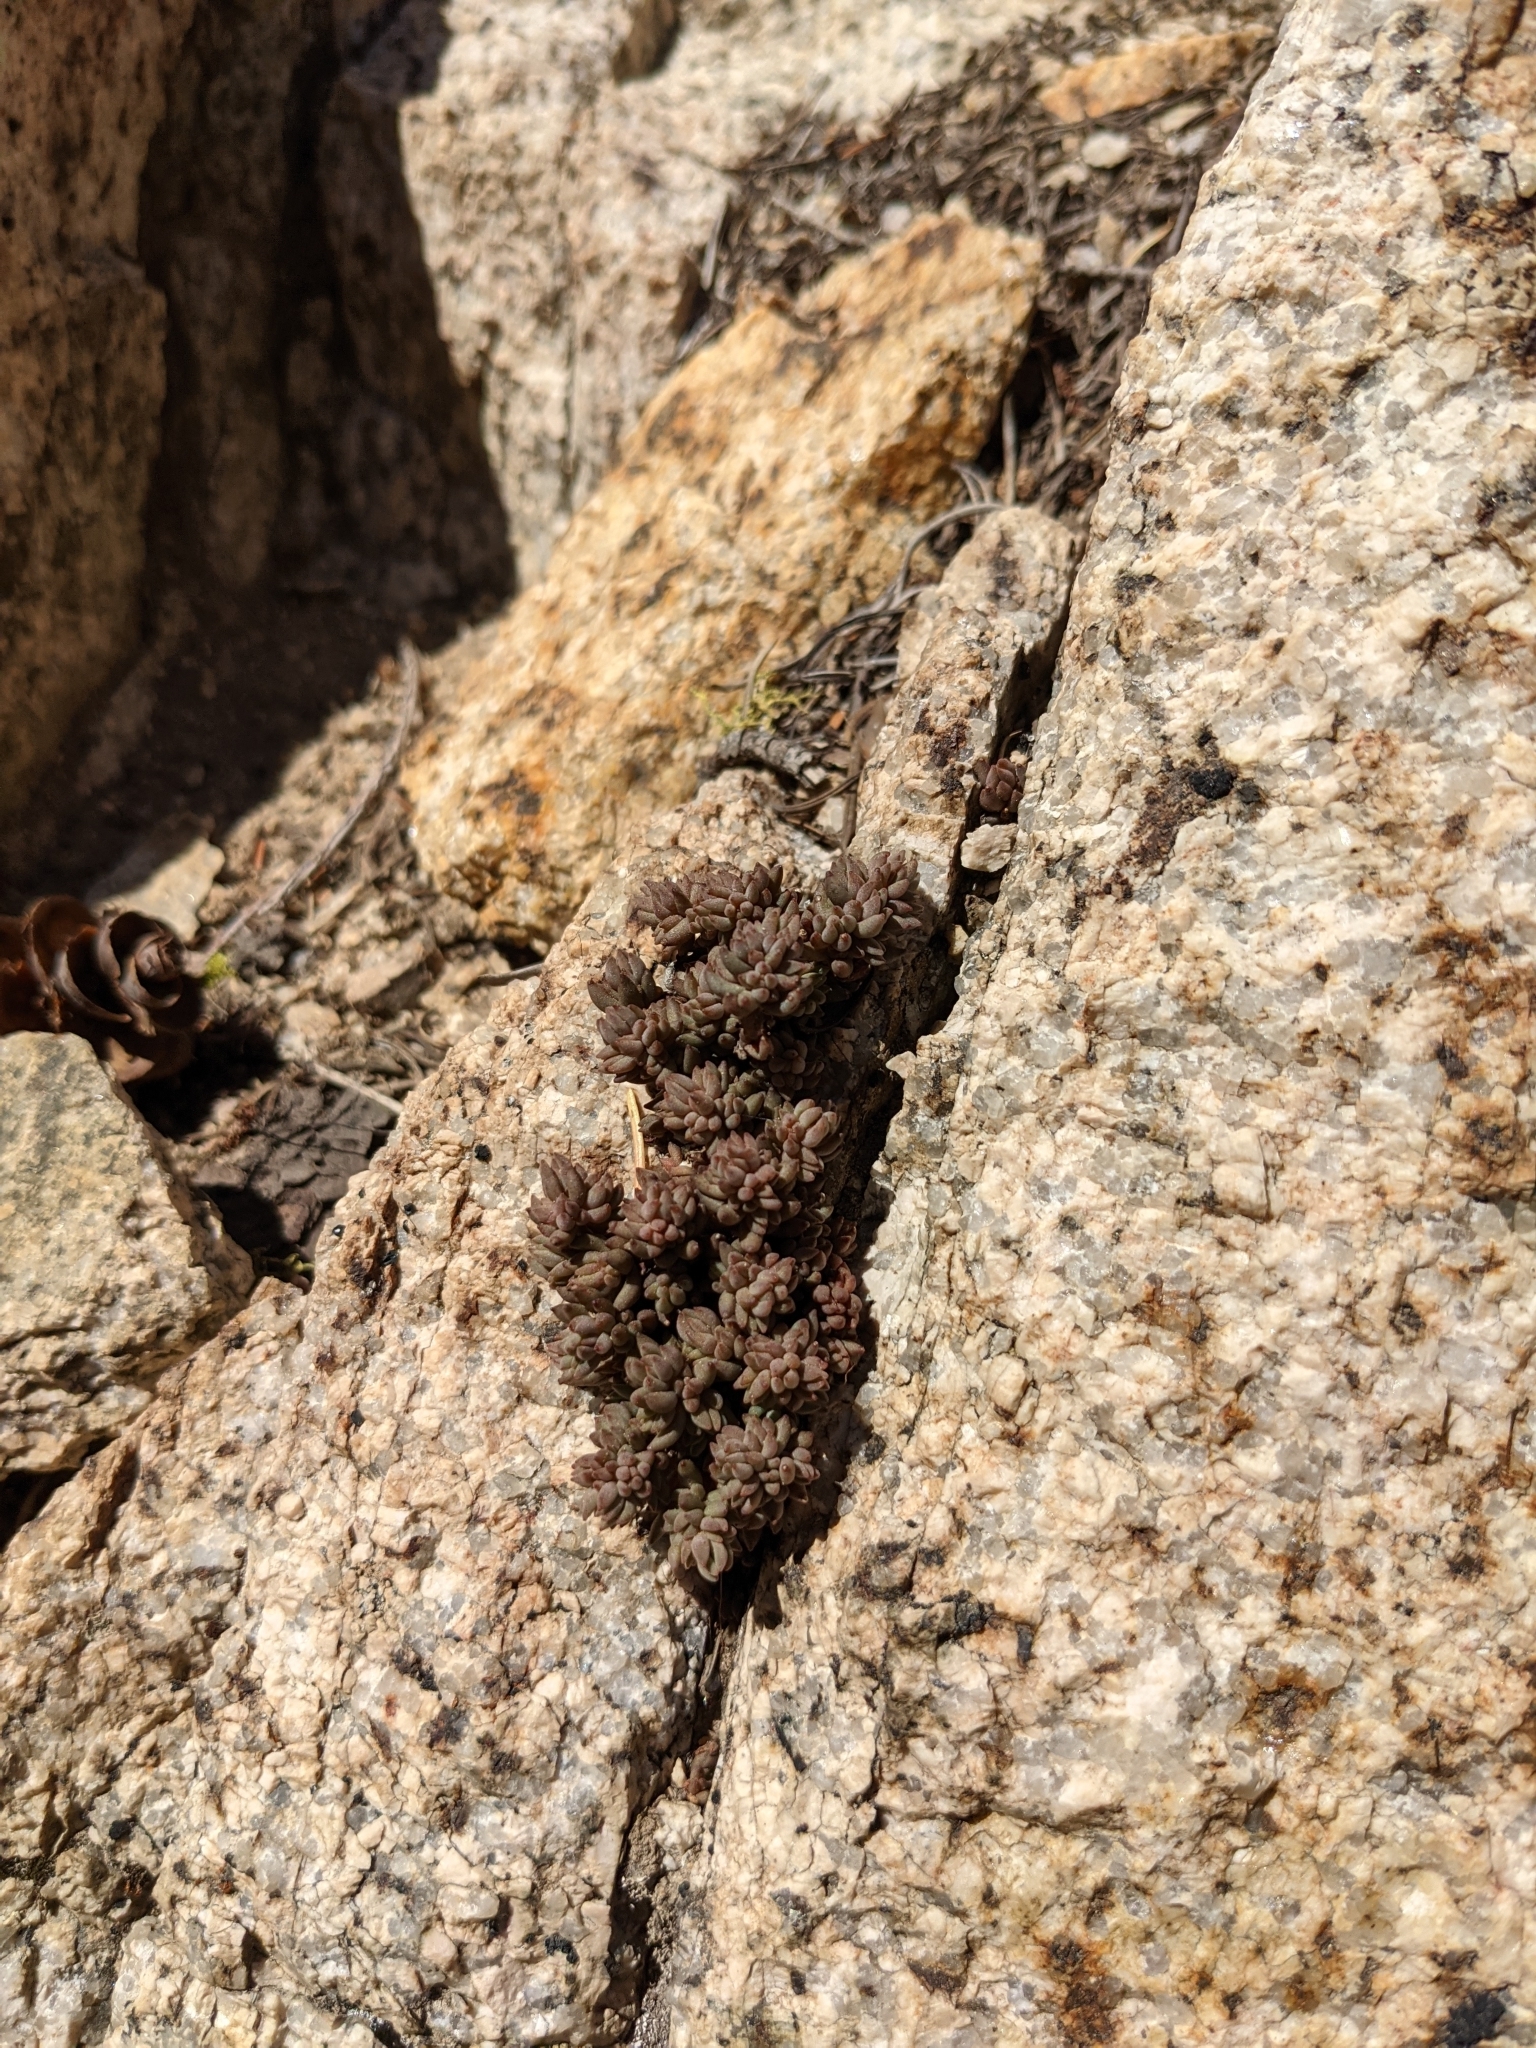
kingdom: Plantae
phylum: Tracheophyta
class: Magnoliopsida
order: Saxifragales
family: Crassulaceae
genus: Sedum
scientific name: Sedum lanceolatum
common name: Common stonecrop
